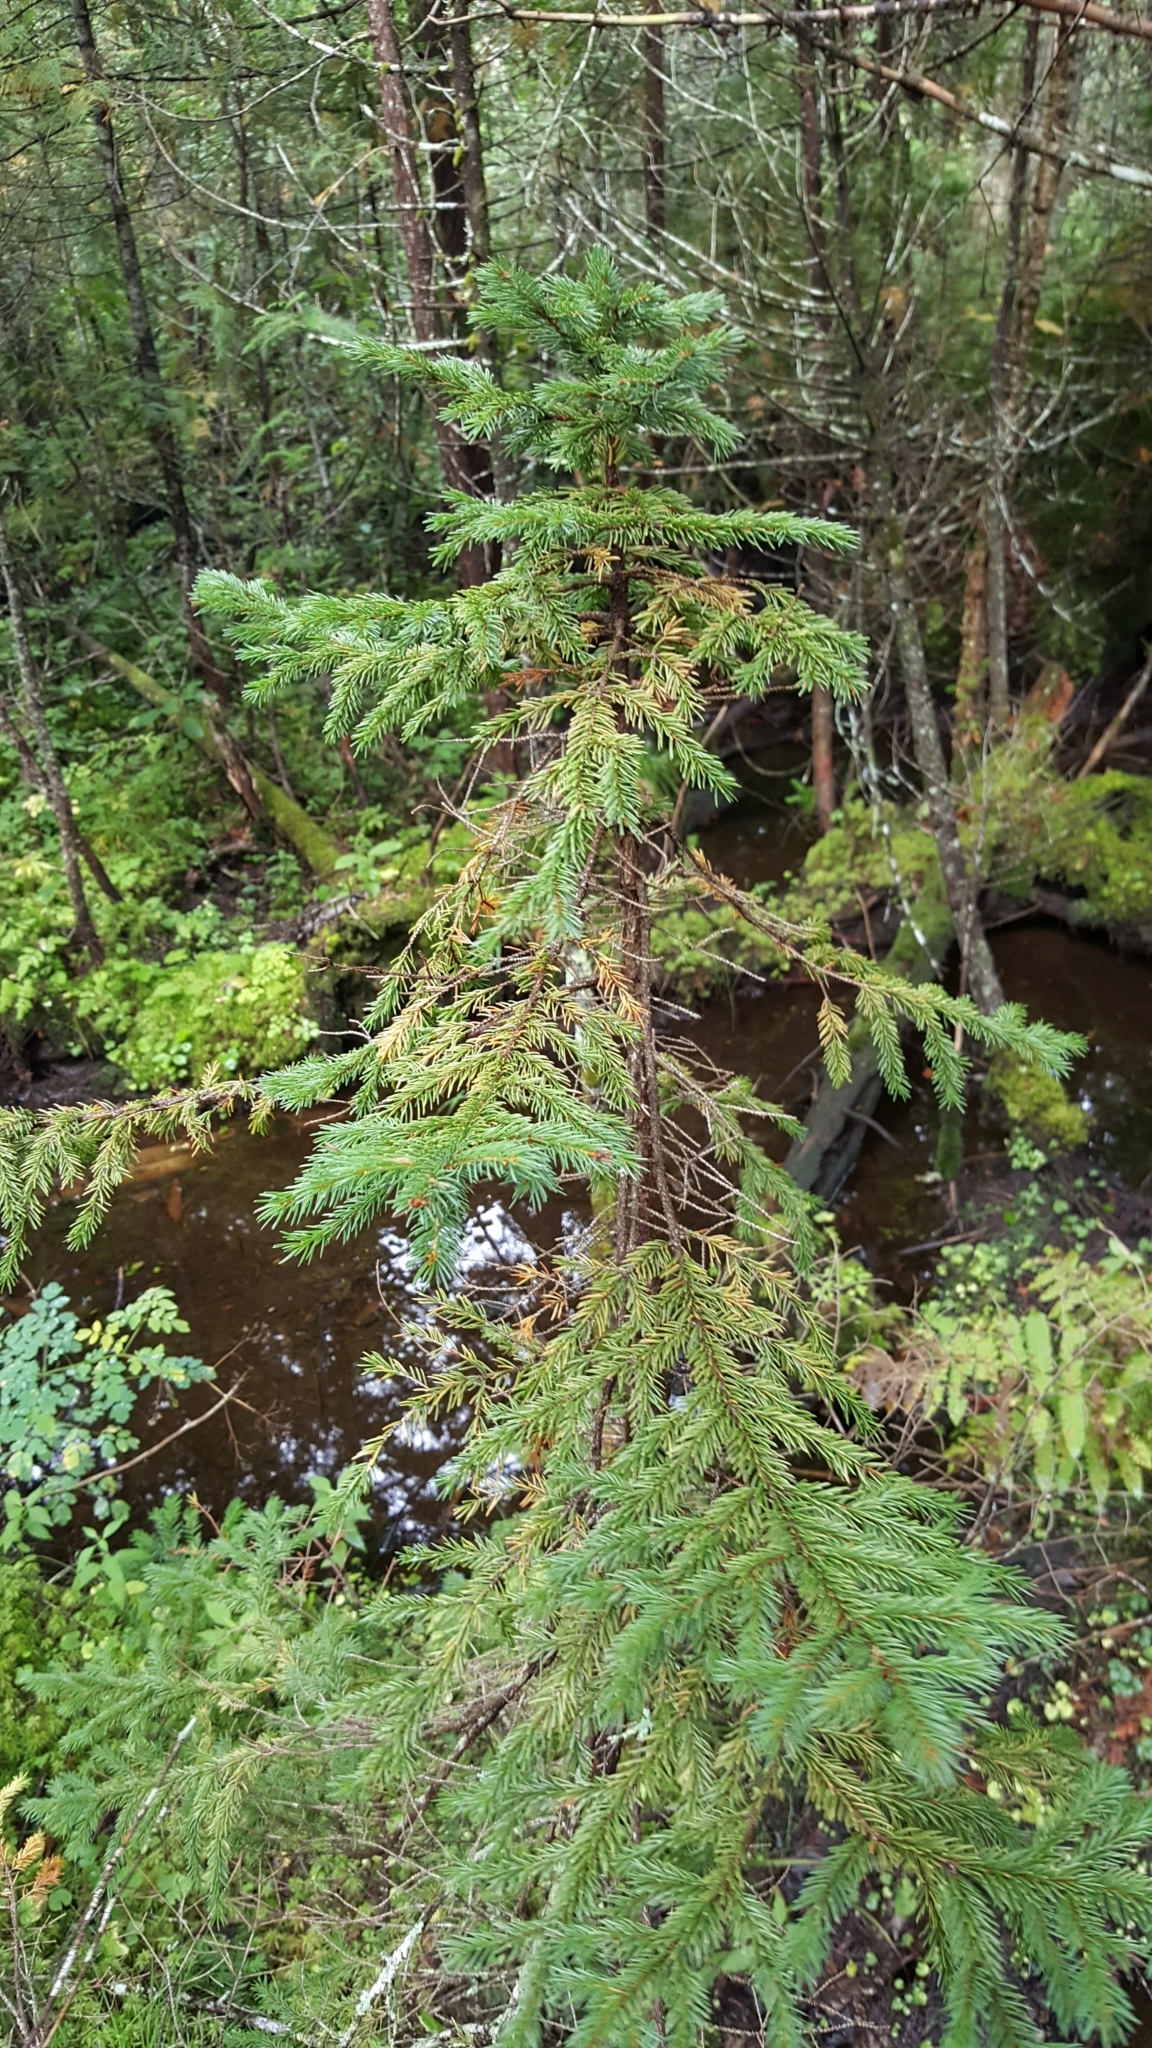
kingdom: Plantae
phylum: Tracheophyta
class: Pinopsida
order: Pinales
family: Pinaceae
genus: Picea
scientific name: Picea mariana
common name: Black spruce
